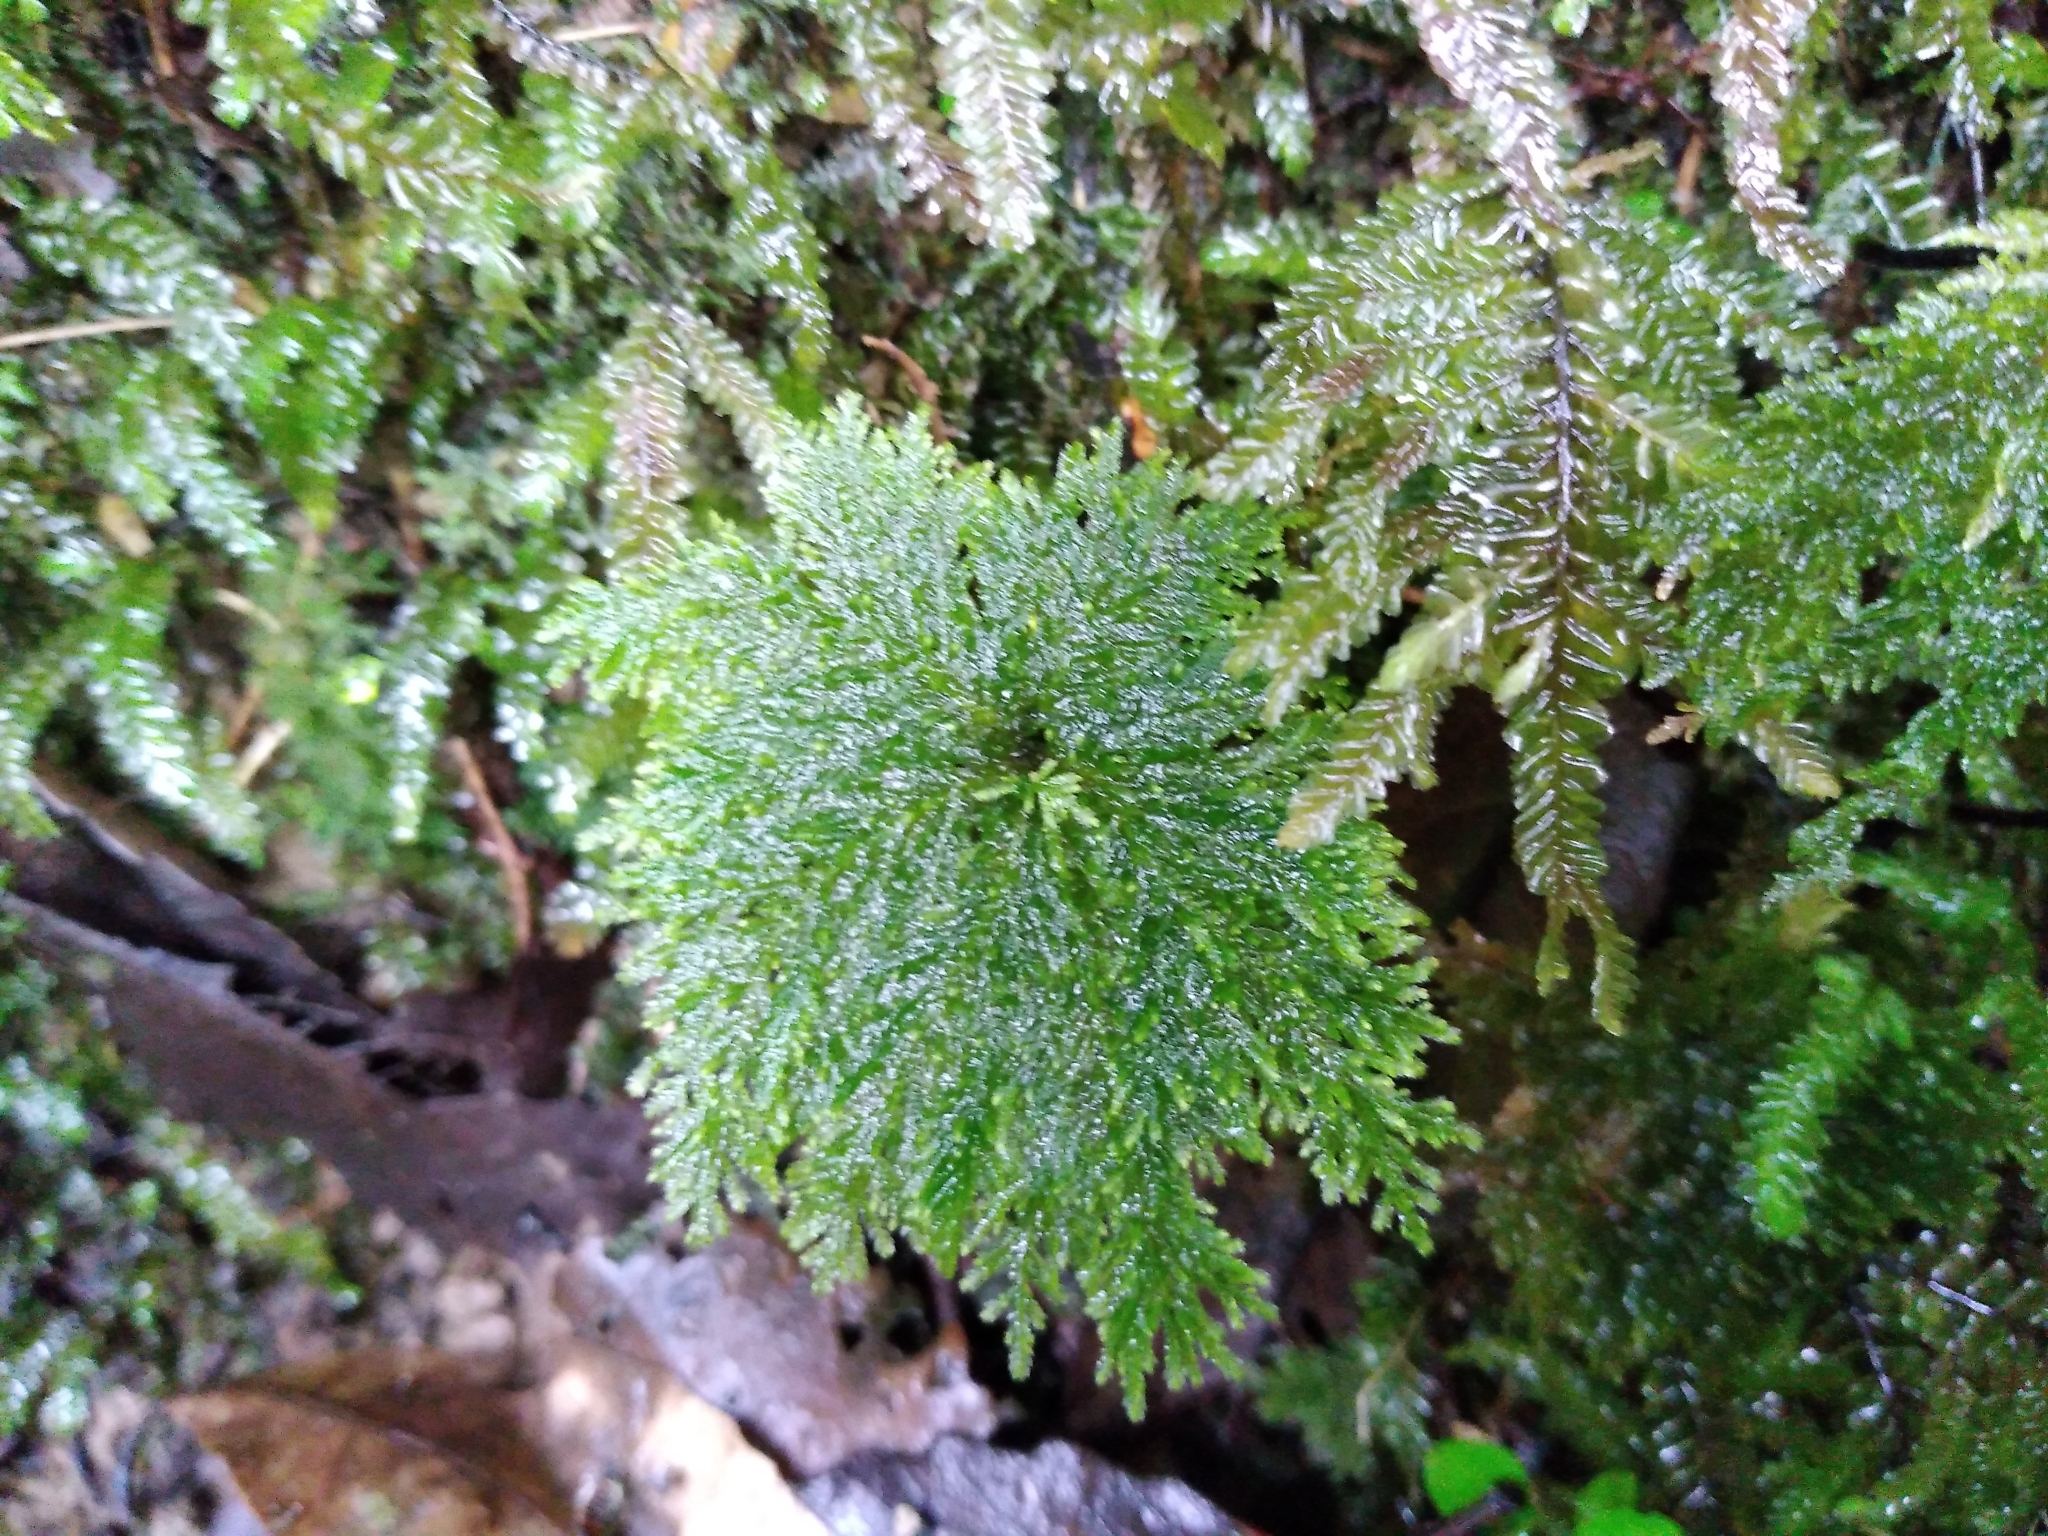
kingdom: Plantae
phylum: Bryophyta
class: Bryopsida
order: Hypopterygiales
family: Hypopterygiaceae
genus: Dendrohypopterygium
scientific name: Dendrohypopterygium filiculiforme
